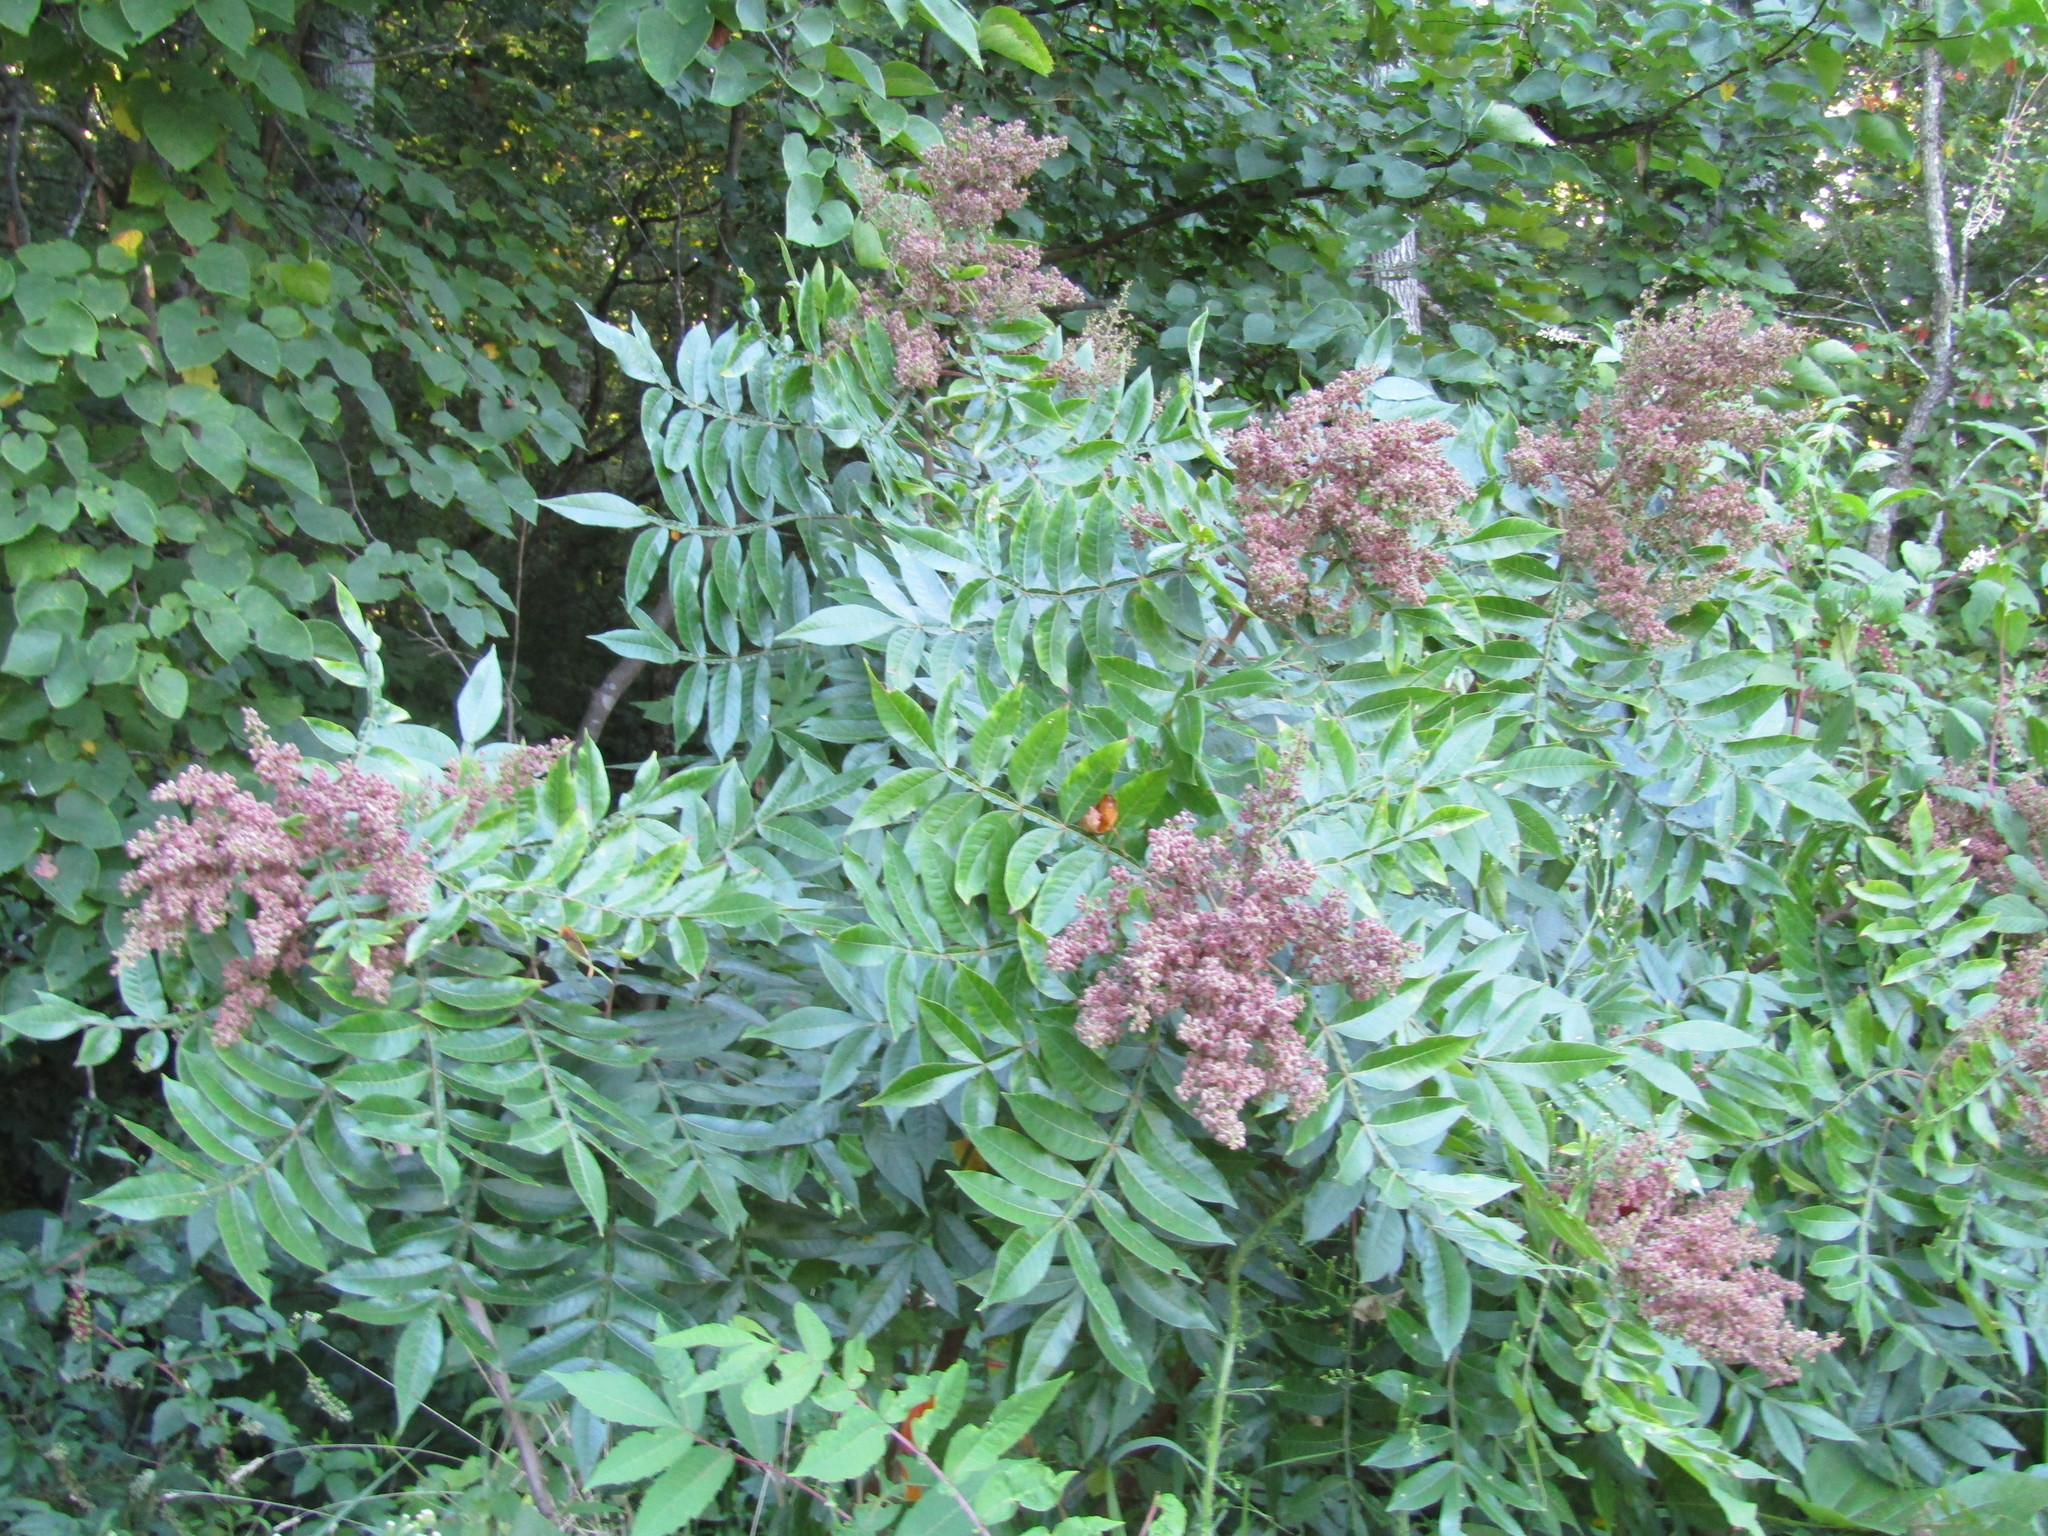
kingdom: Plantae
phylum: Tracheophyta
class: Magnoliopsida
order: Sapindales
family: Anacardiaceae
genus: Rhus
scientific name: Rhus copallina
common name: Shining sumac
